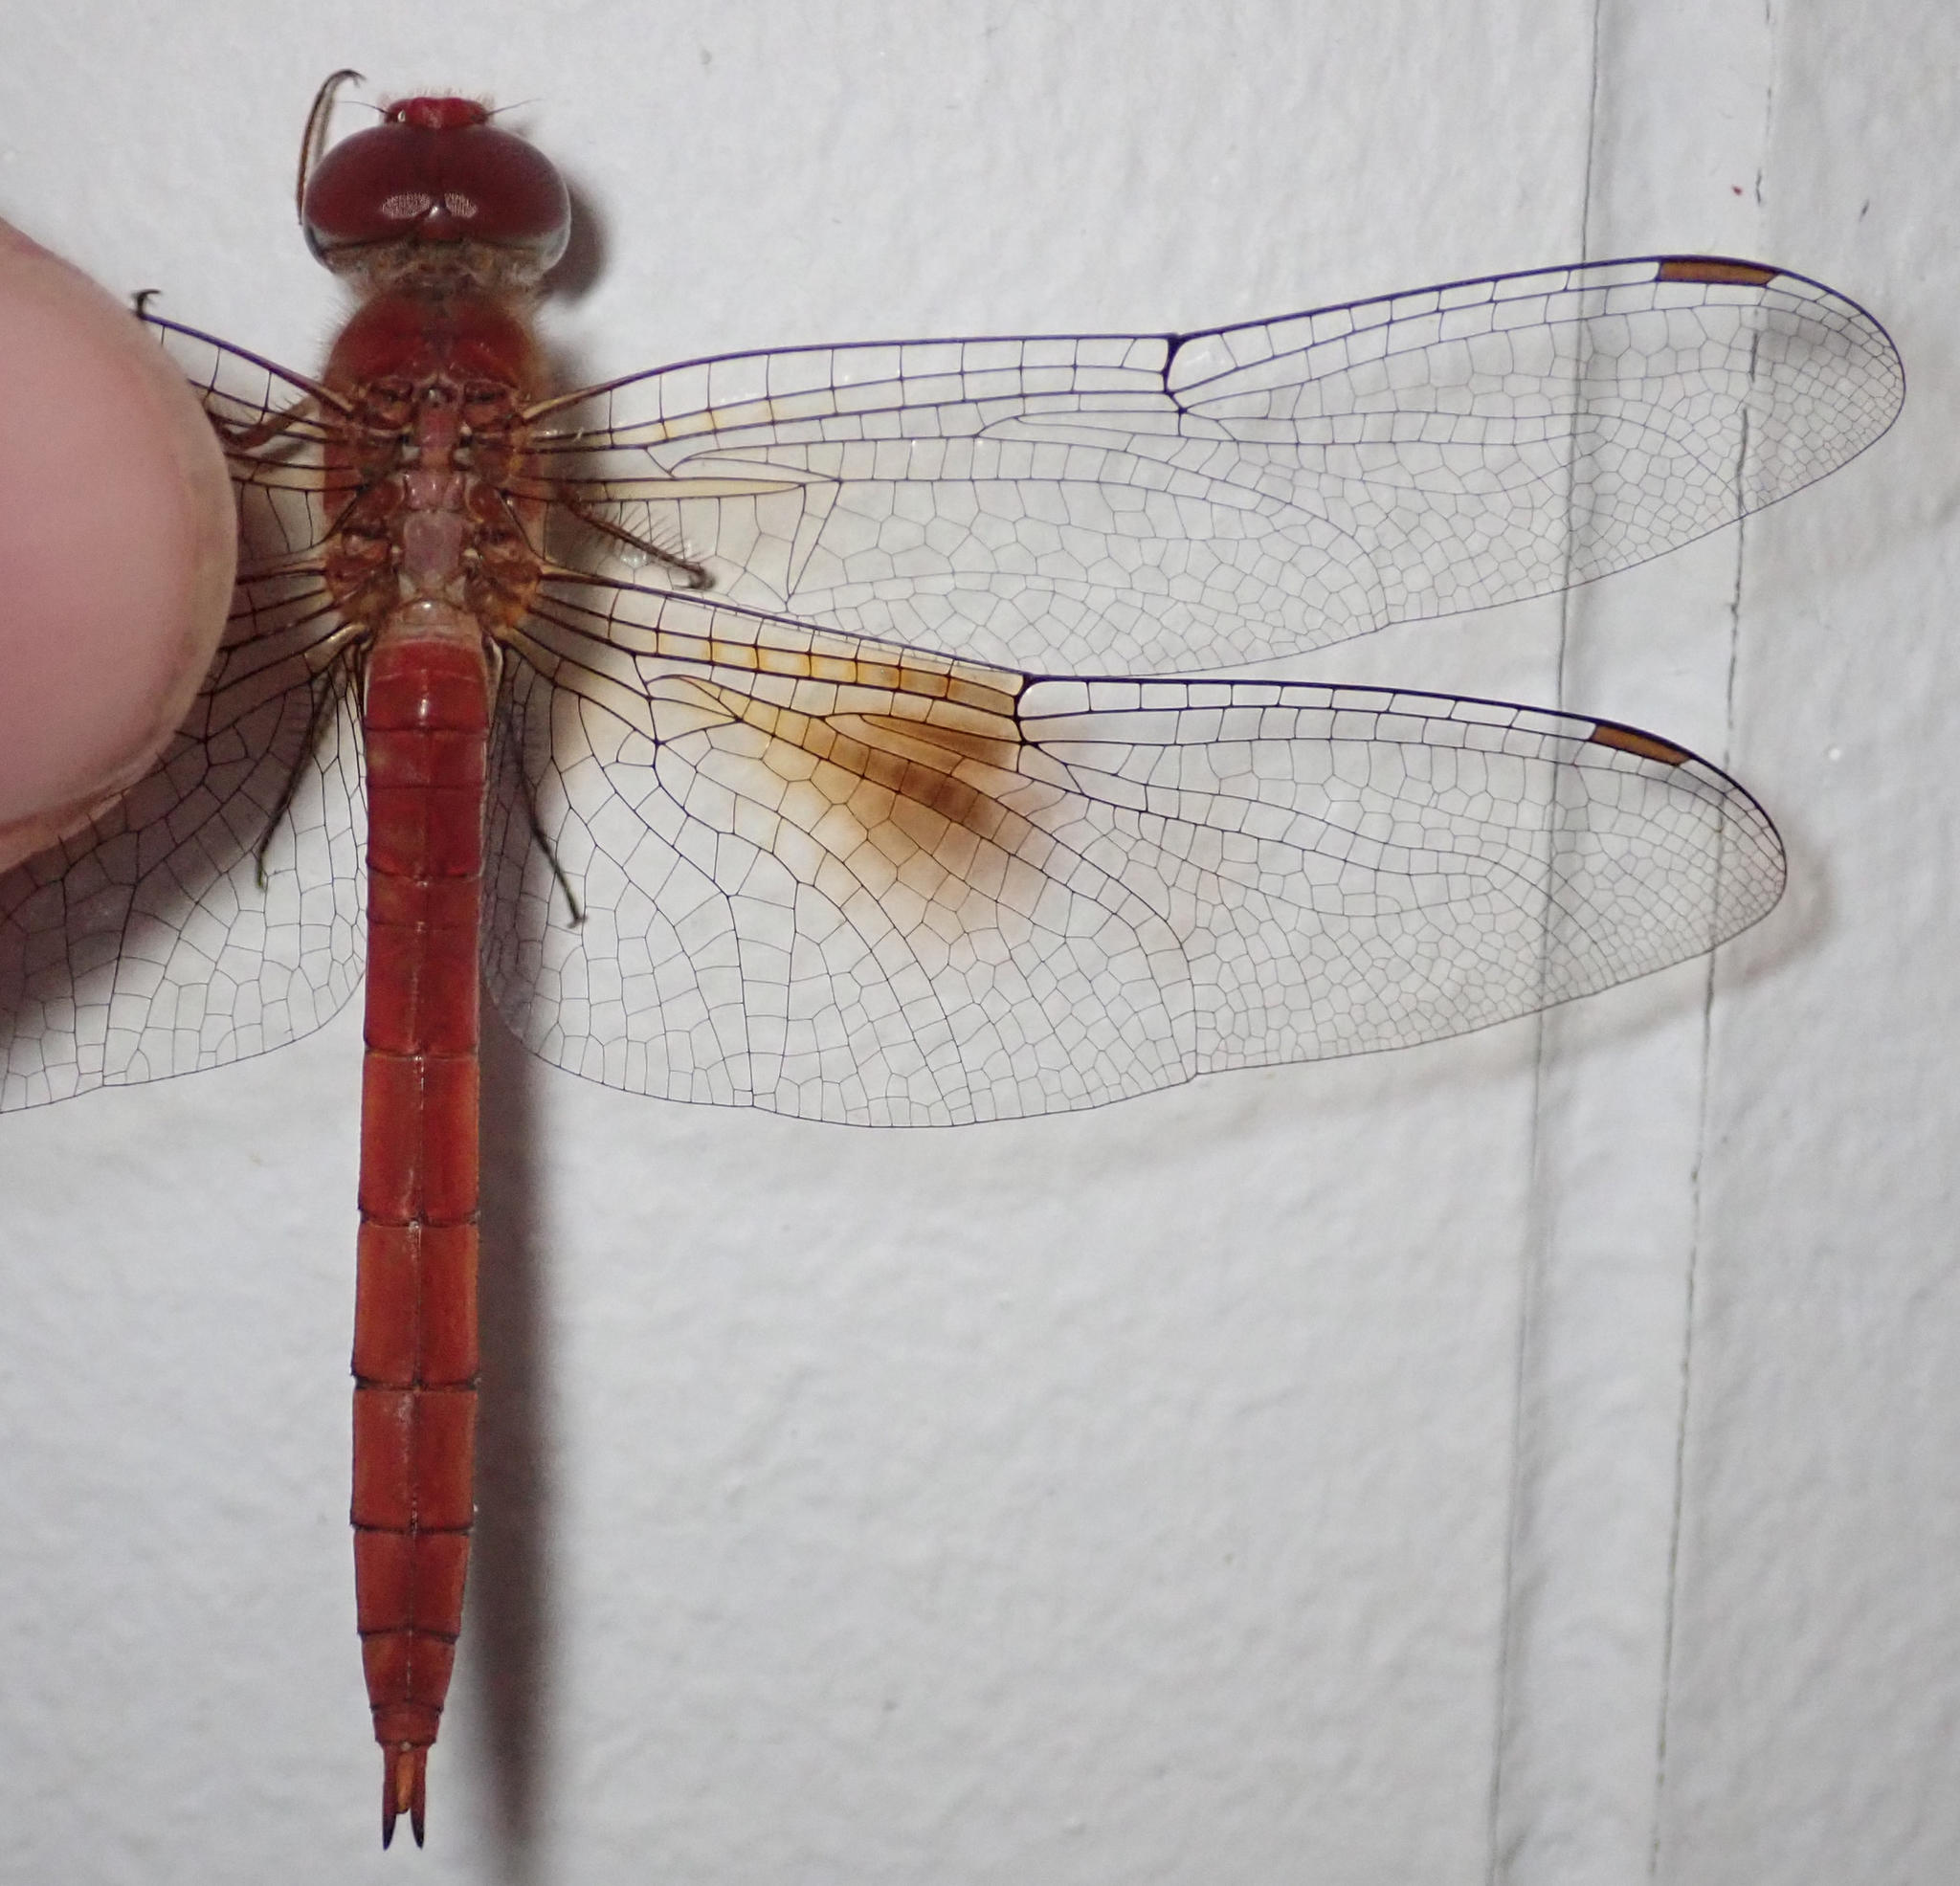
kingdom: Animalia
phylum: Arthropoda
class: Insecta
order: Odonata
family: Libellulidae
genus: Tholymis
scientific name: Tholymis tillarga
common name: Coral-tailed cloud wing
